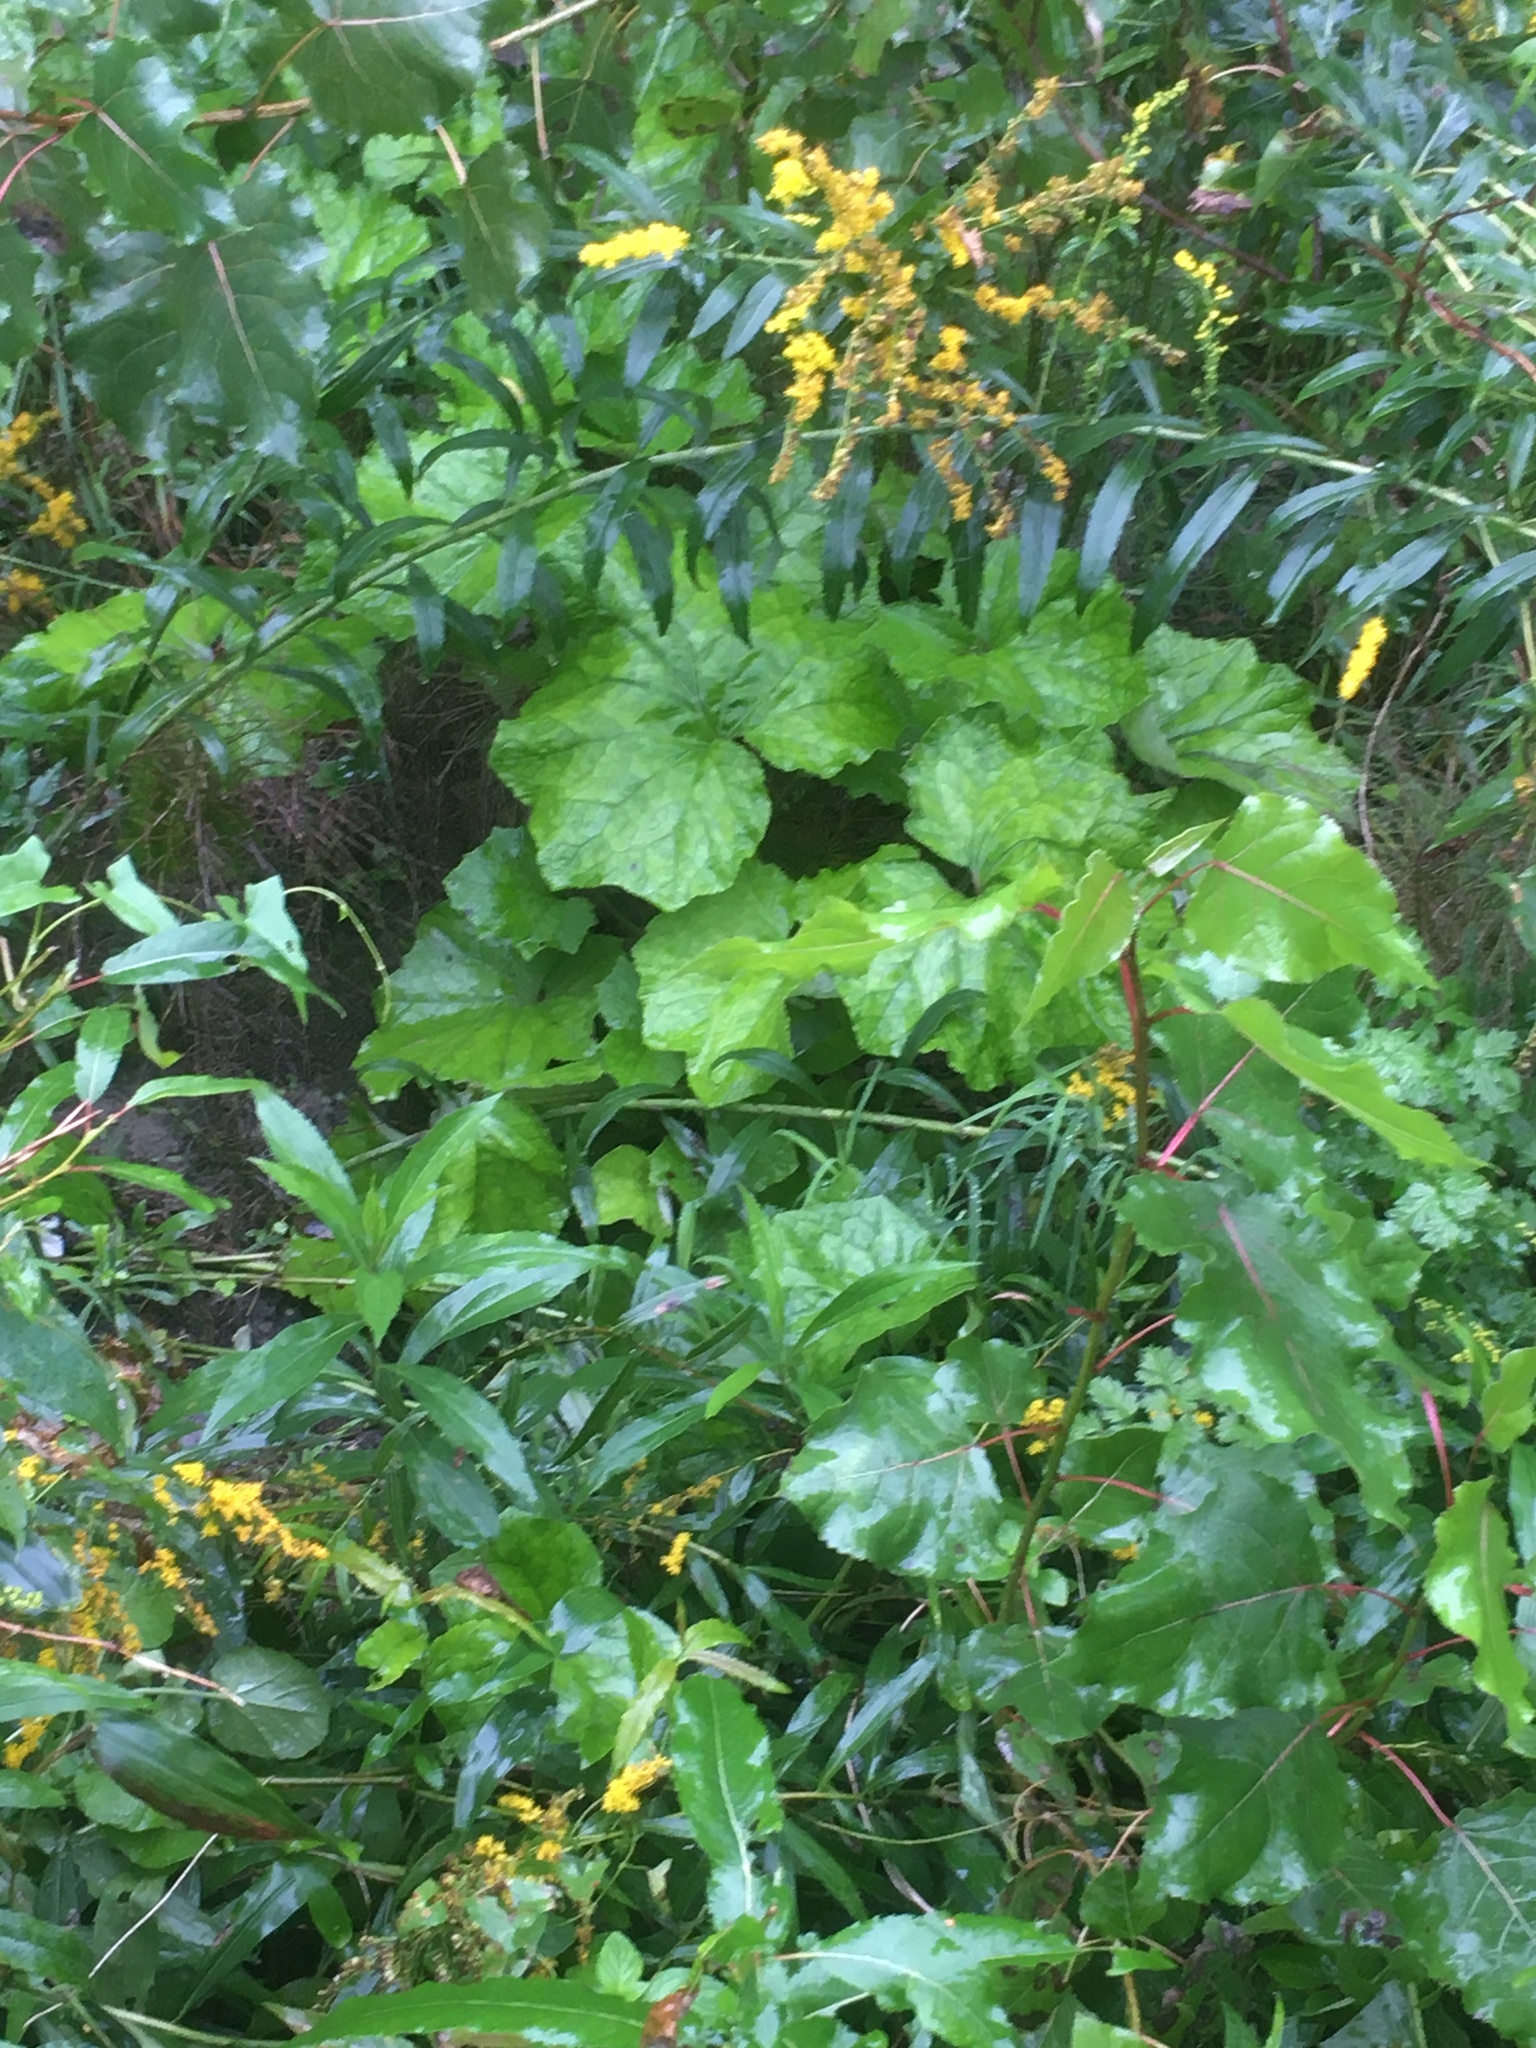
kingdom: Plantae
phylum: Tracheophyta
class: Magnoliopsida
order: Asterales
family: Asteraceae
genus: Tussilago
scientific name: Tussilago farfara
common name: Coltsfoot
